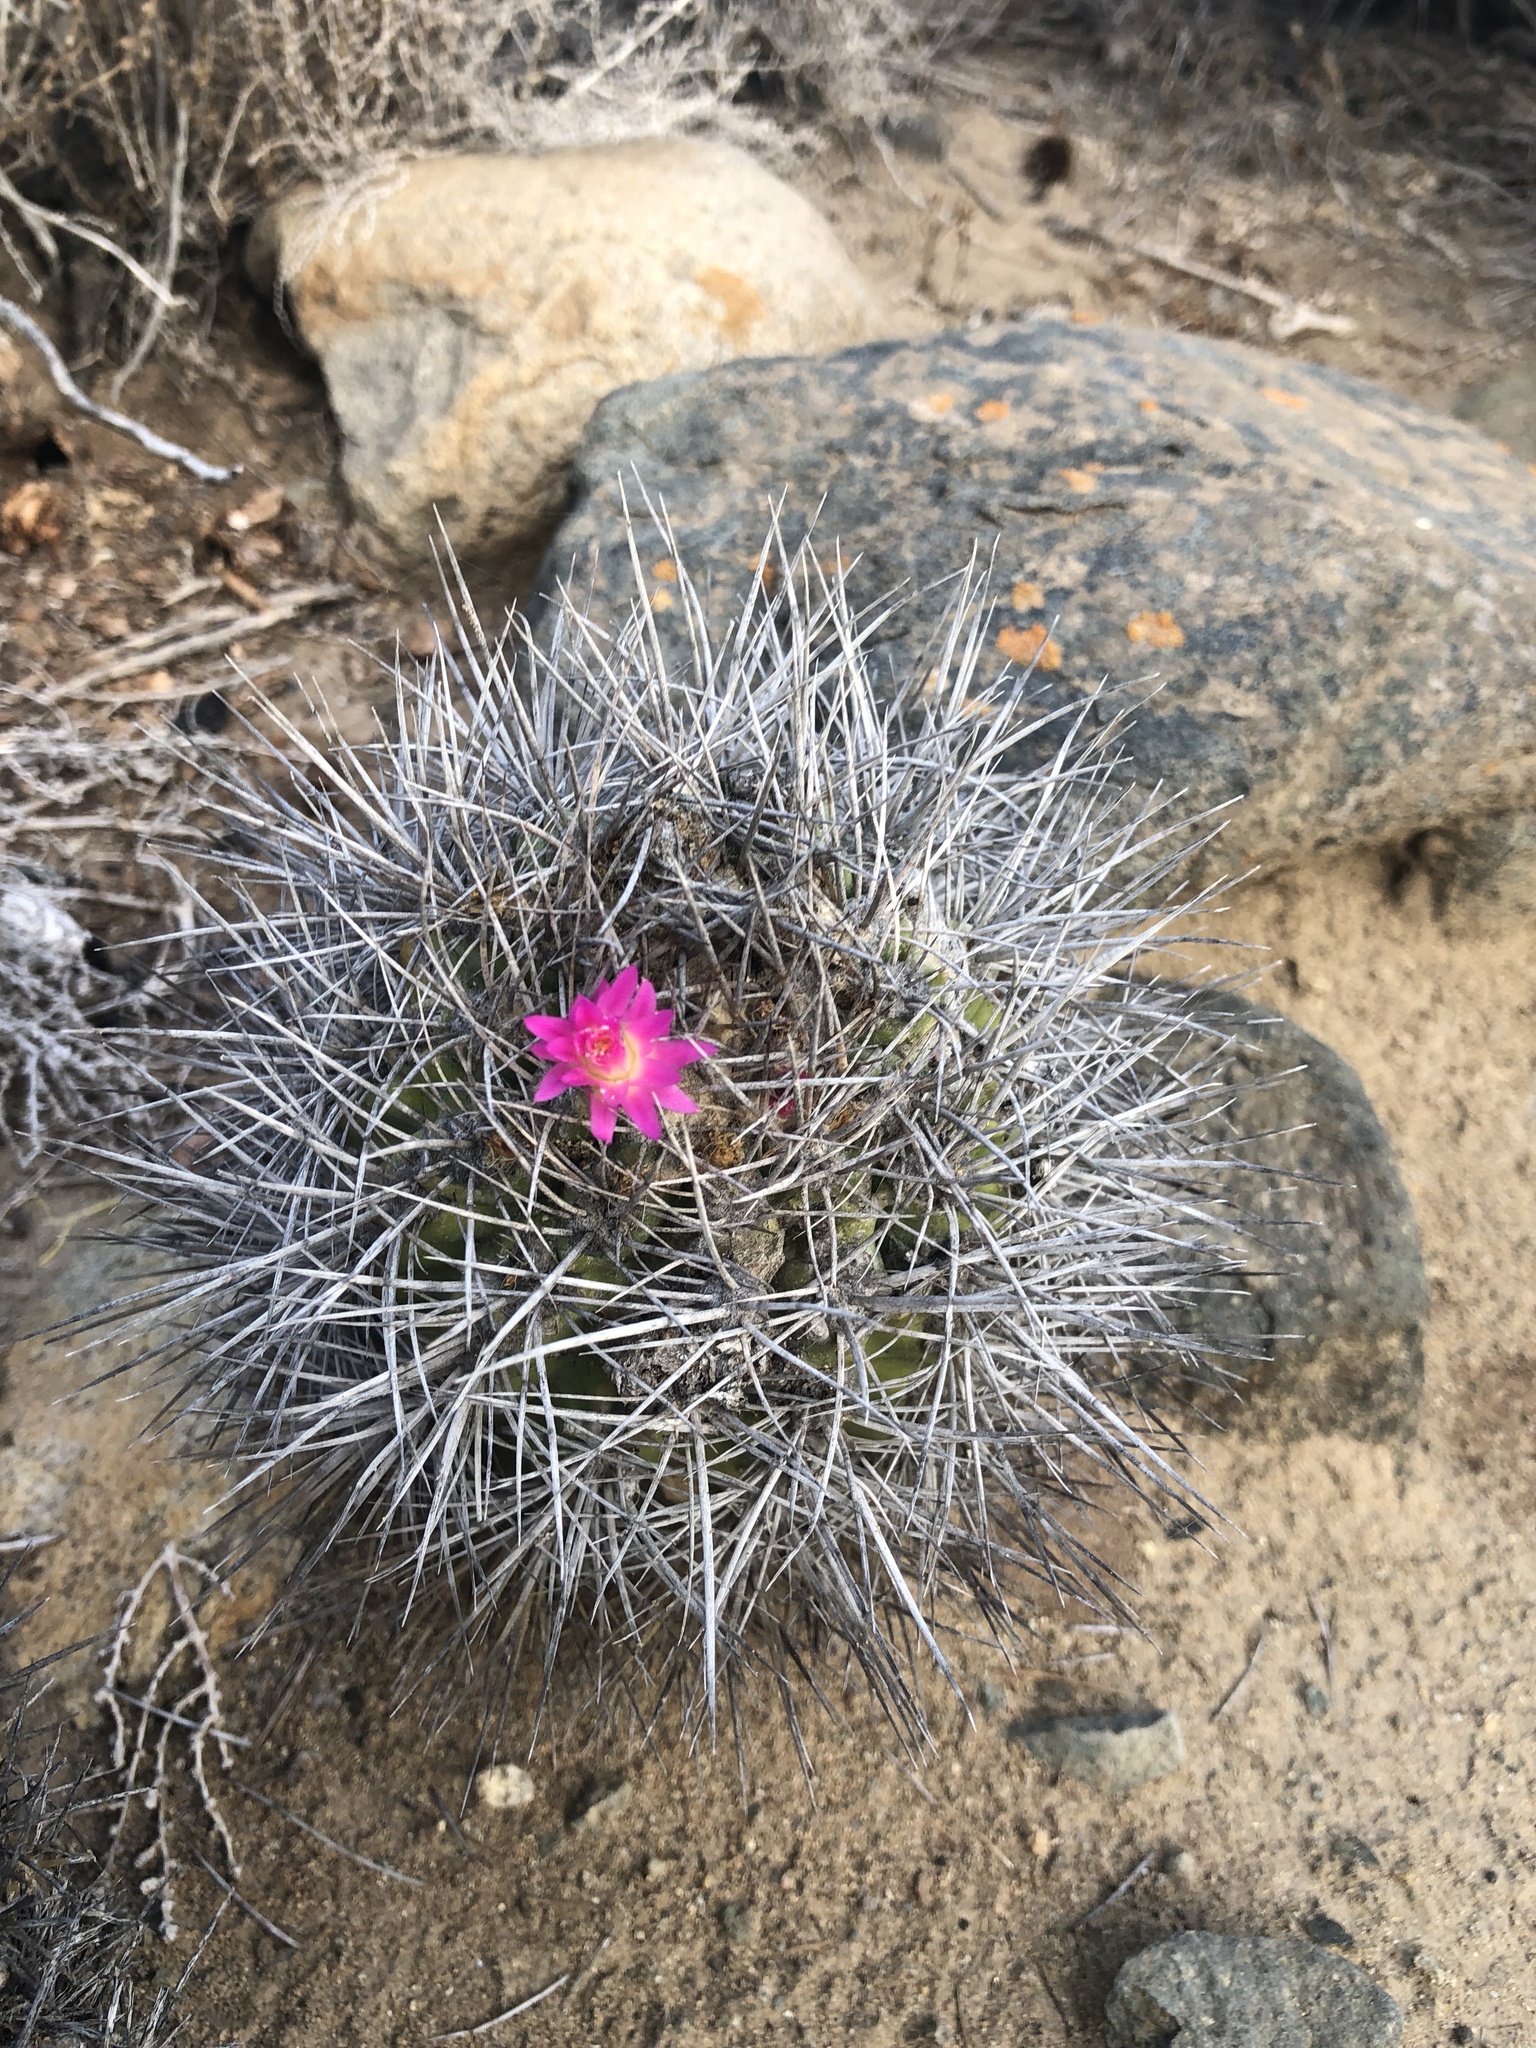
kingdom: Plantae
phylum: Tracheophyta
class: Magnoliopsida
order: Caryophyllales
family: Cactaceae
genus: Eriosyce
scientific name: Eriosyce wagenknechtii
